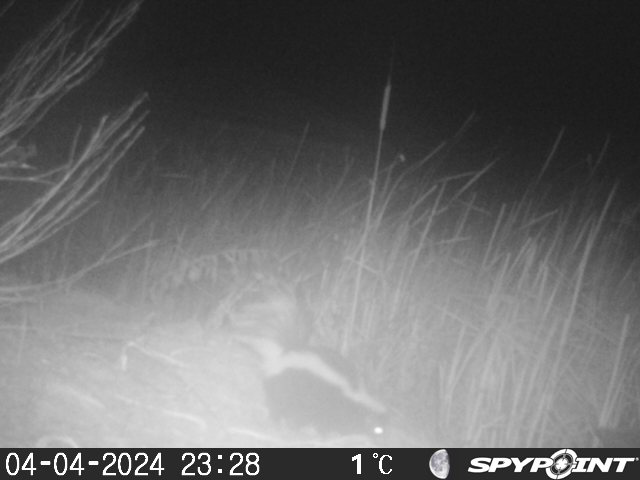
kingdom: Animalia
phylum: Chordata
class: Mammalia
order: Carnivora
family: Mephitidae
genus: Mephitis
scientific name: Mephitis mephitis
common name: Striped skunk
